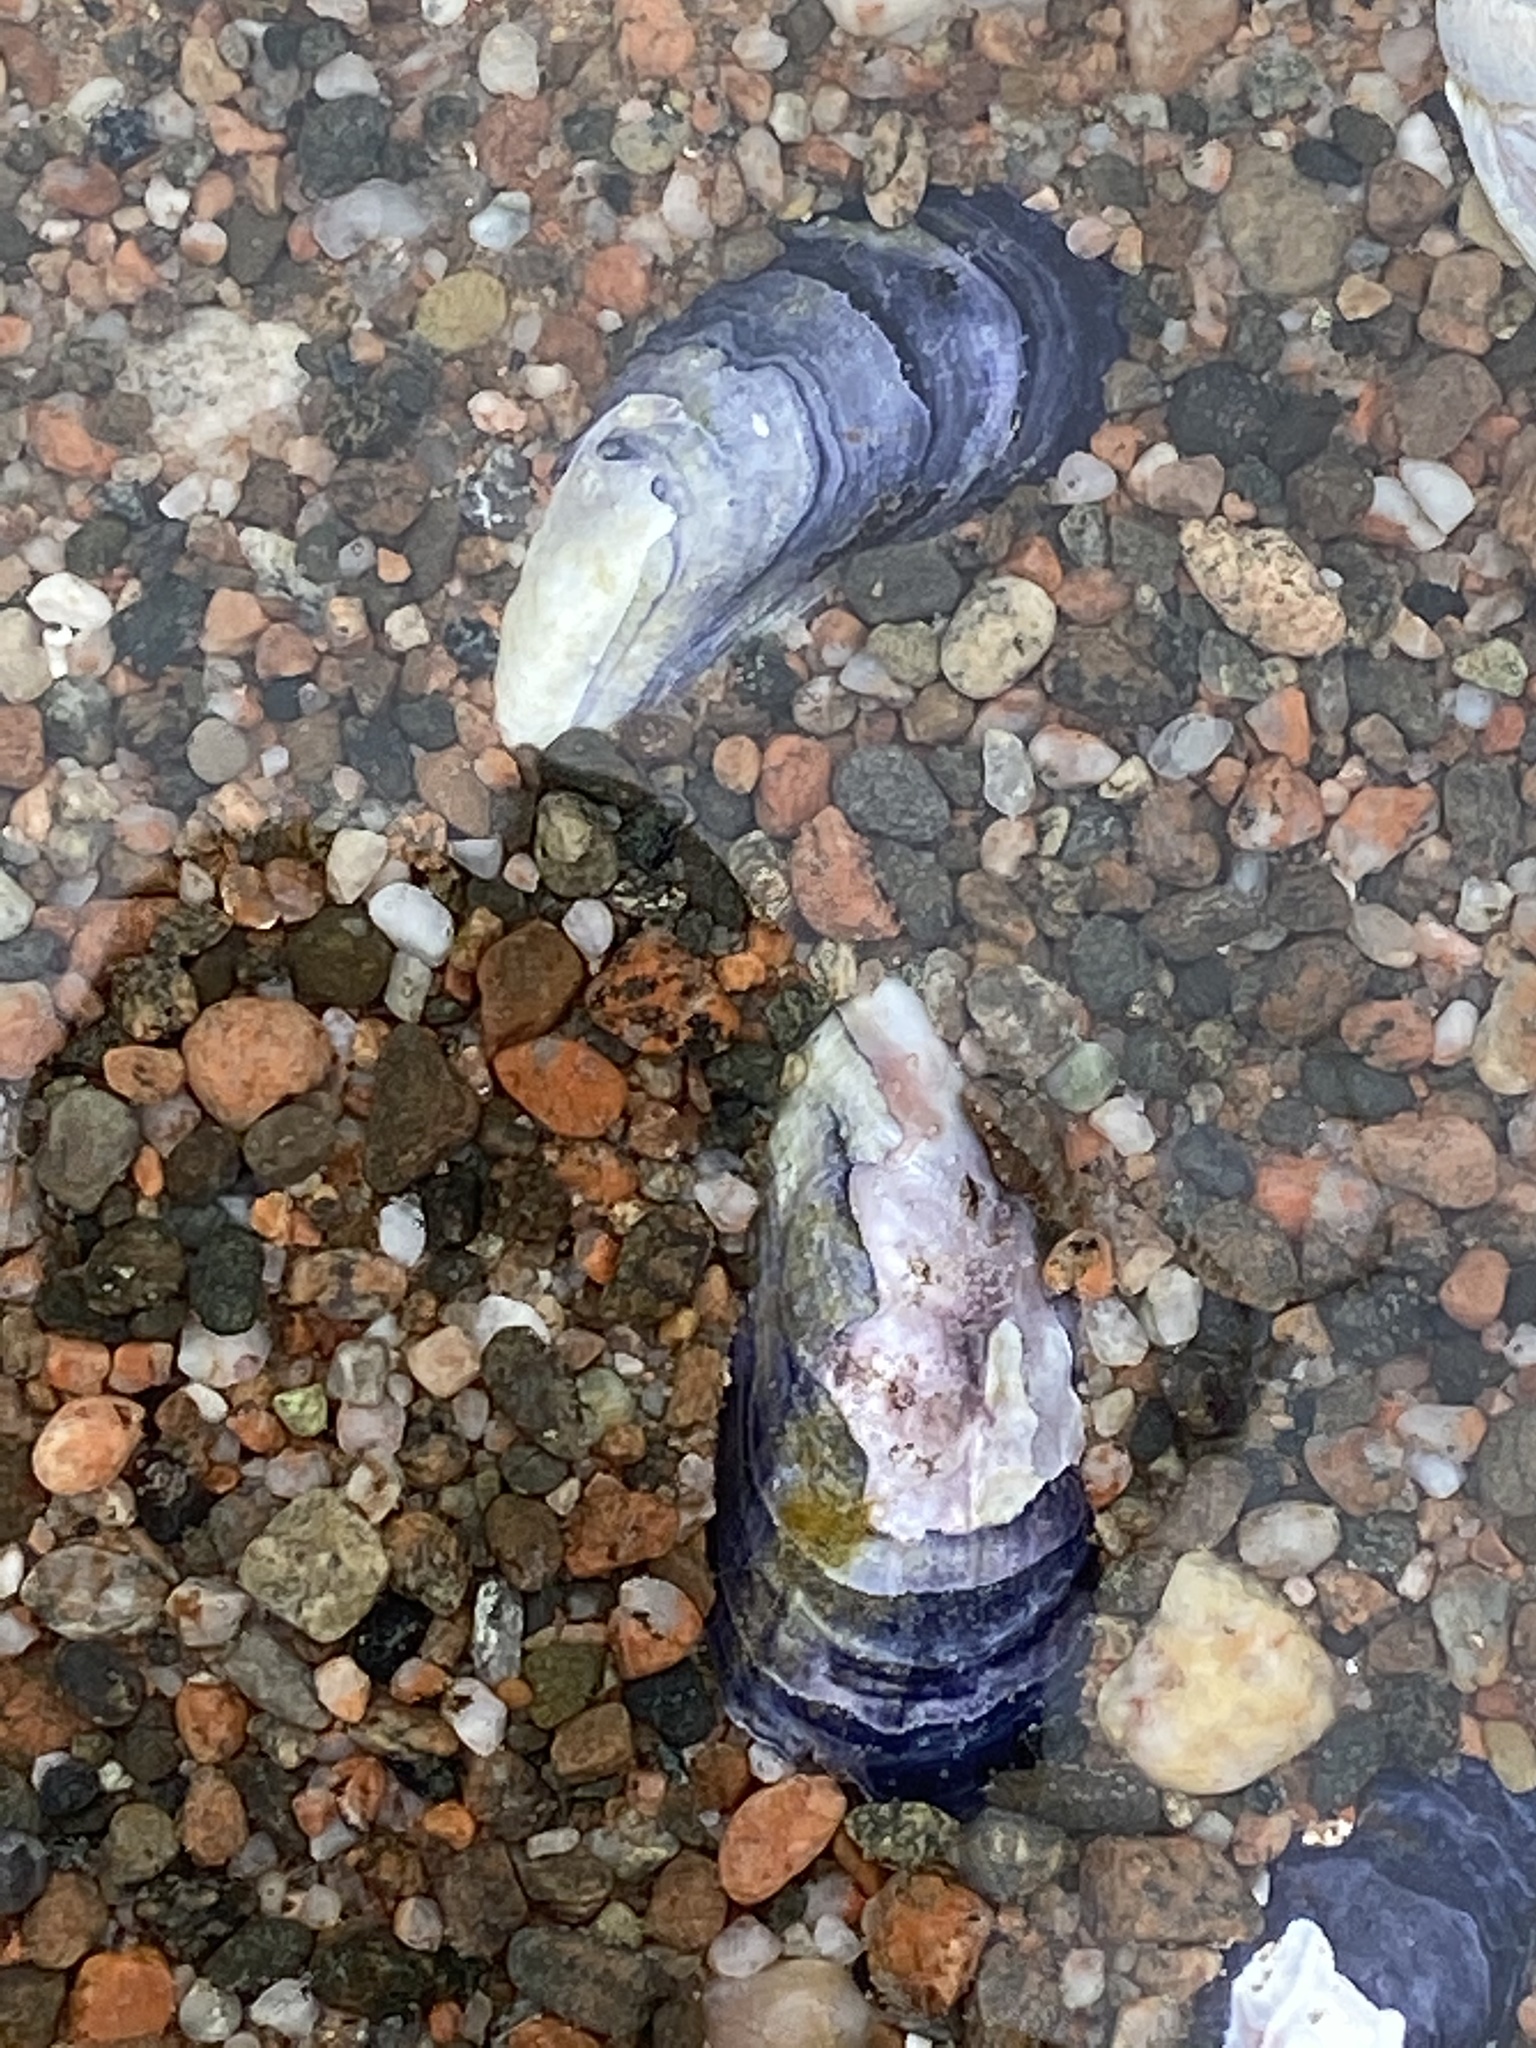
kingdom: Animalia
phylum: Mollusca
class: Bivalvia
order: Mytilida
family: Mytilidae
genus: Mytilus
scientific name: Mytilus edulis
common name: Blue mussel
